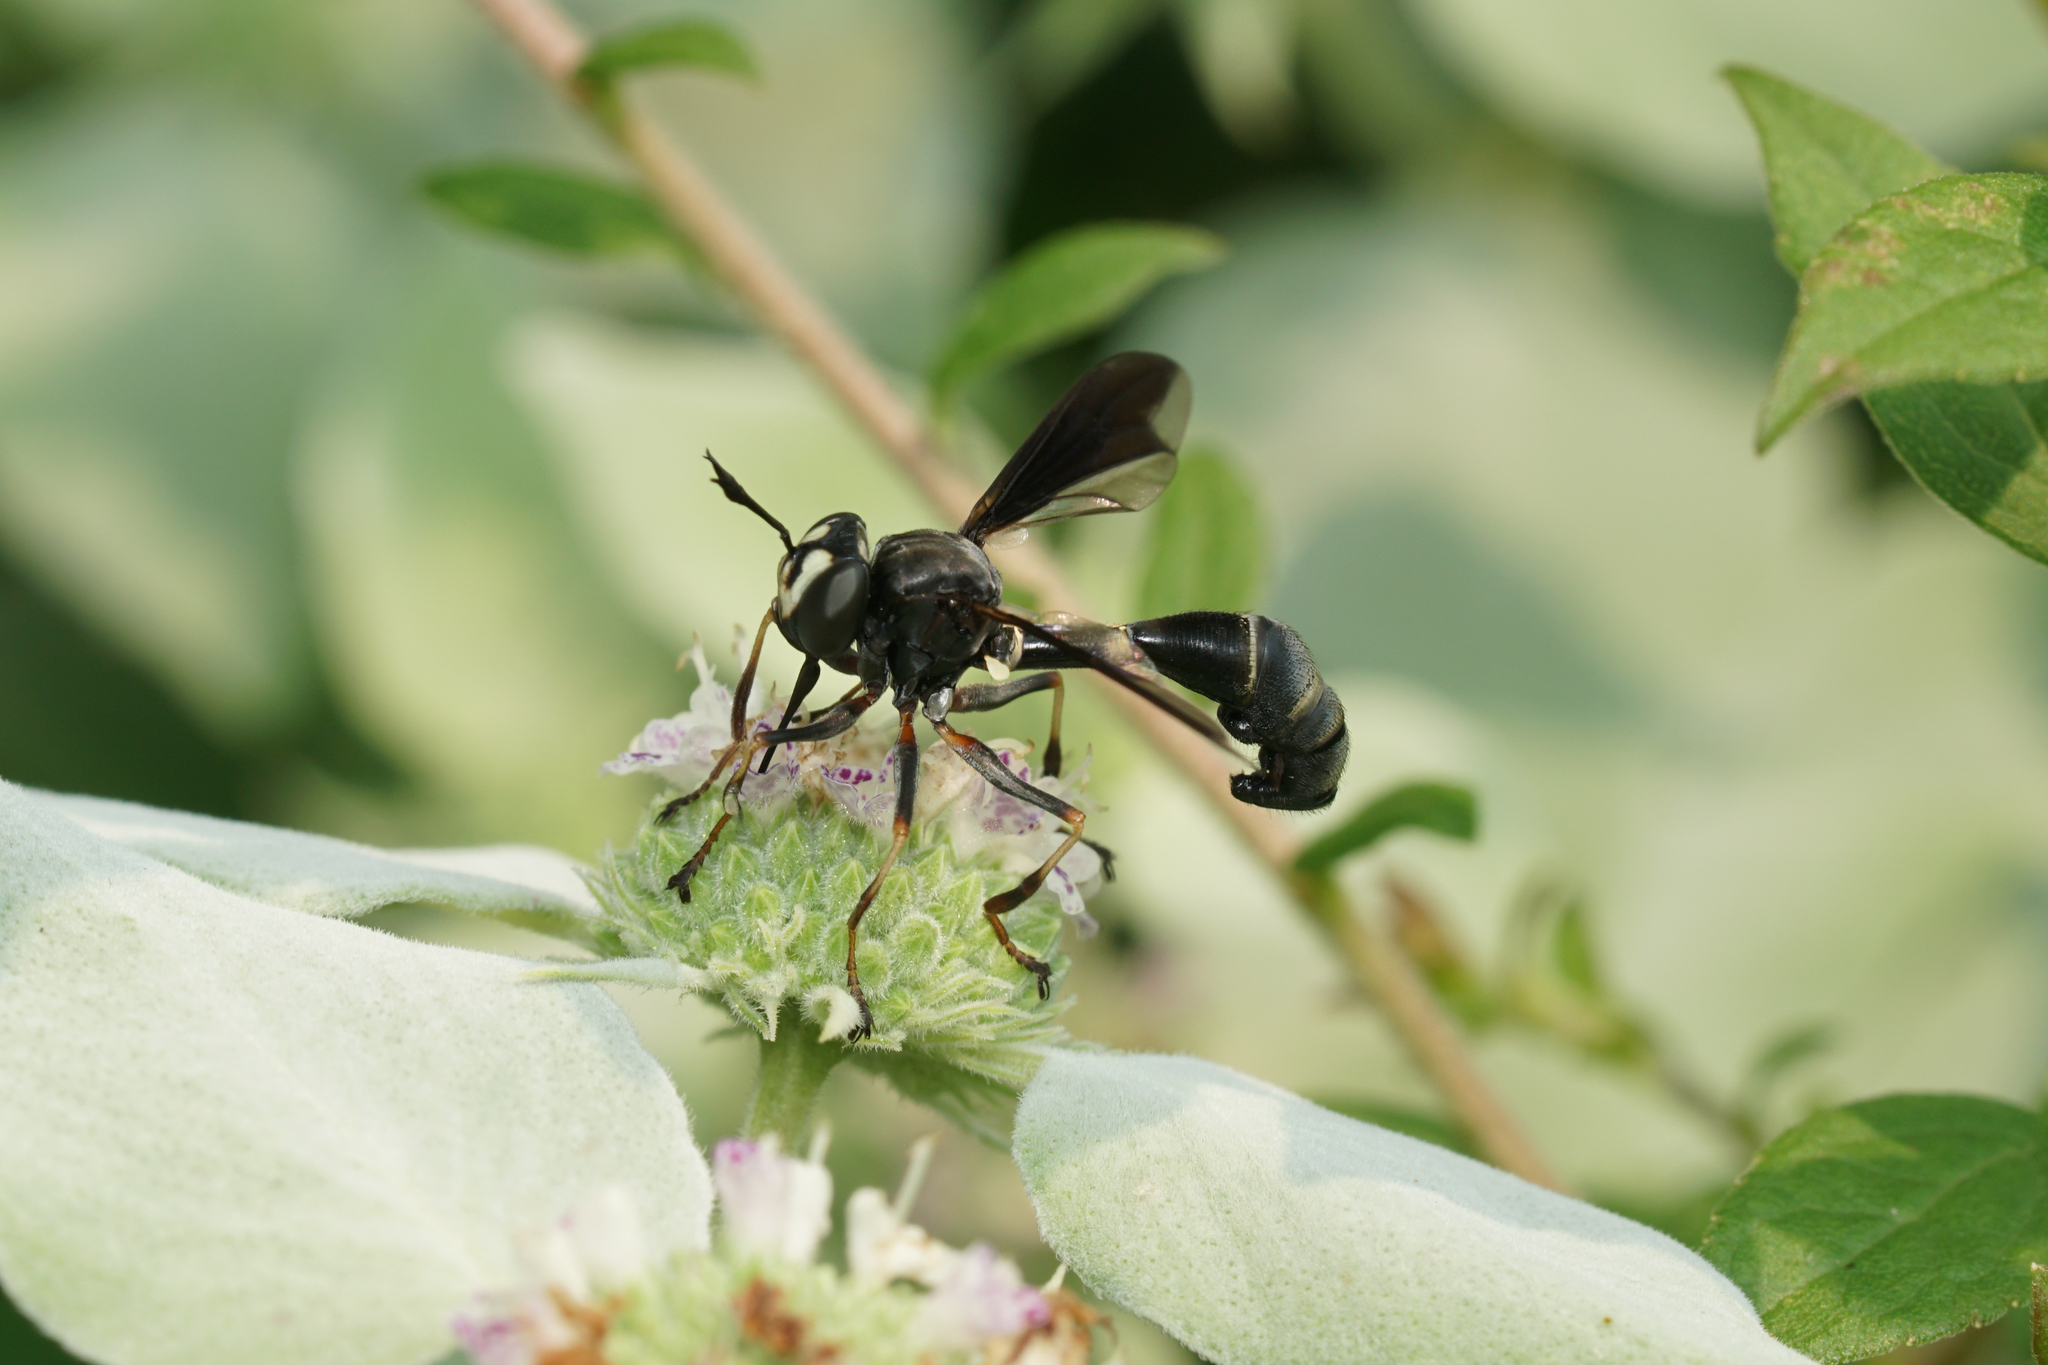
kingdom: Animalia
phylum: Arthropoda
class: Insecta
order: Diptera
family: Conopidae
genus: Physocephala
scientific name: Physocephala tibialis
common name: Common eastern physocephala
